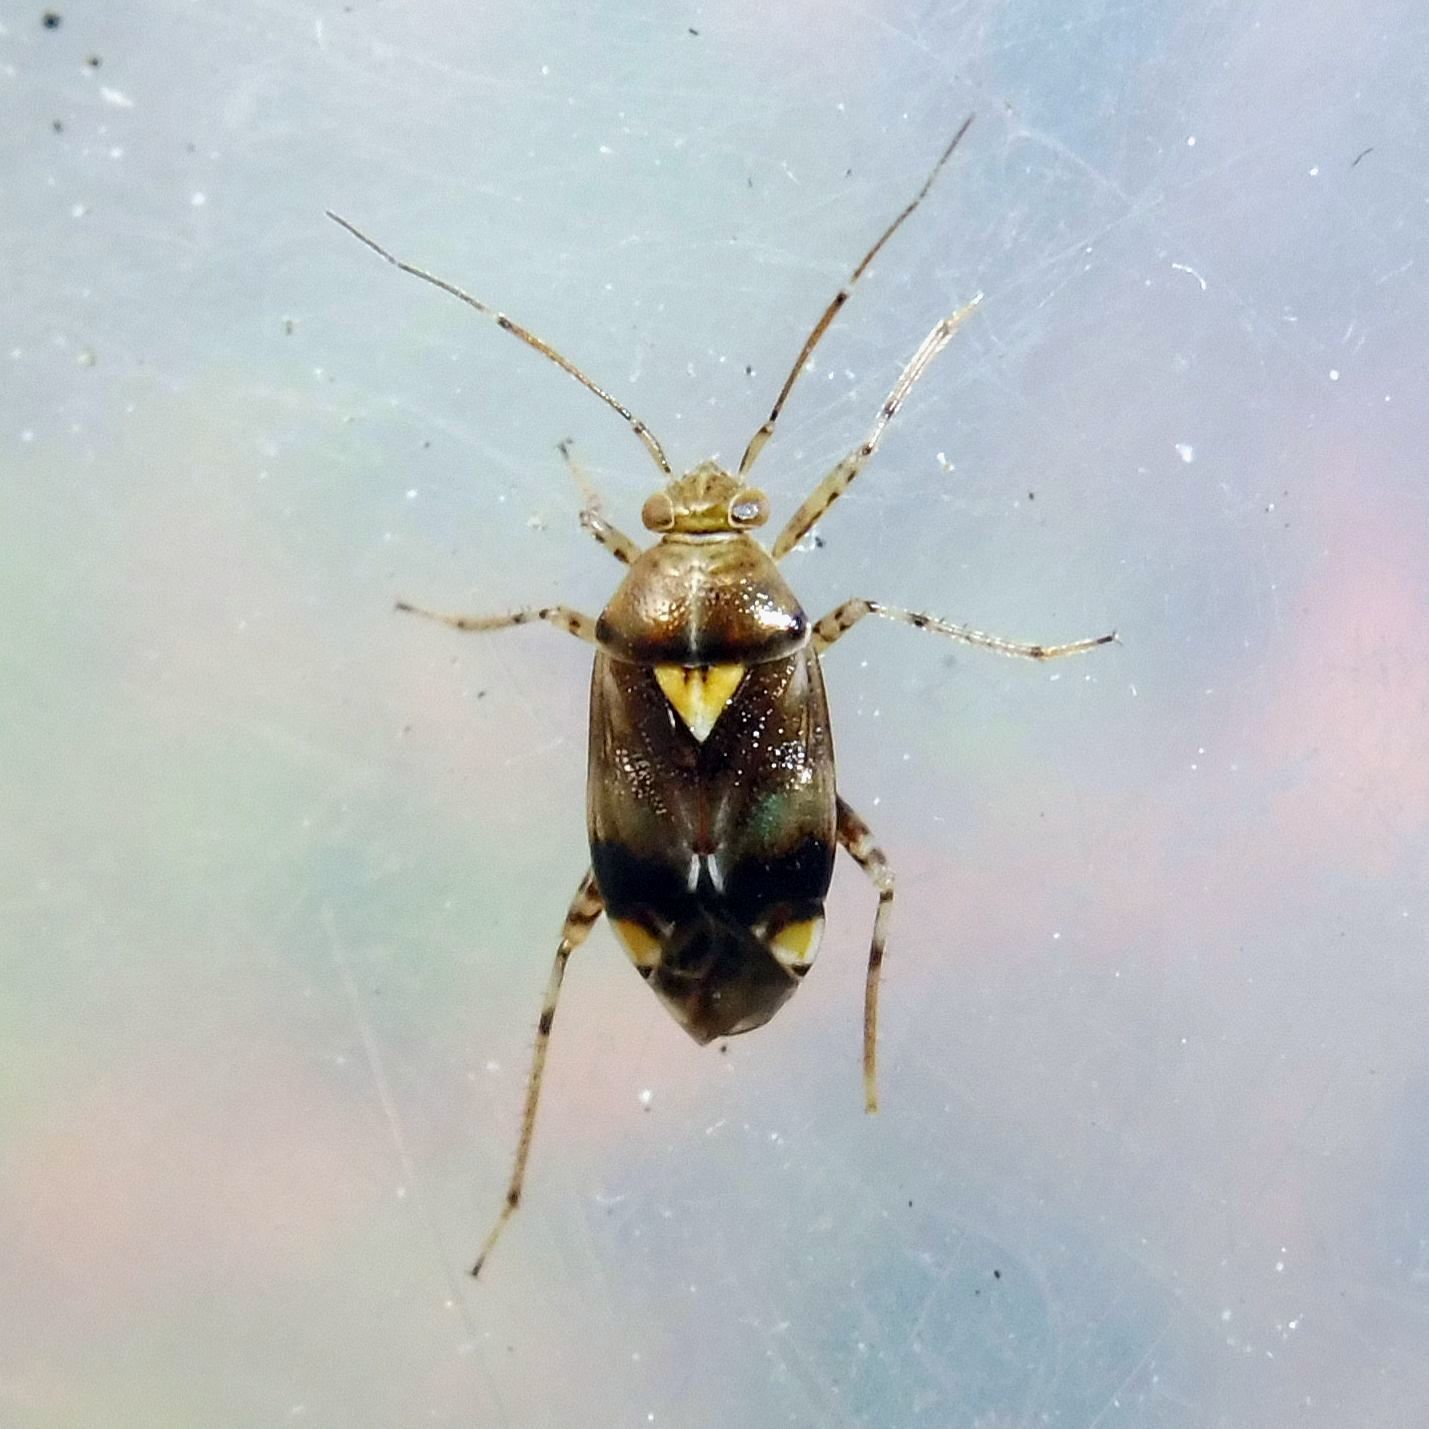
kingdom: Animalia
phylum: Arthropoda
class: Insecta
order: Hemiptera
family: Miridae
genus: Liocoris
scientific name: Liocoris tripustulatus
